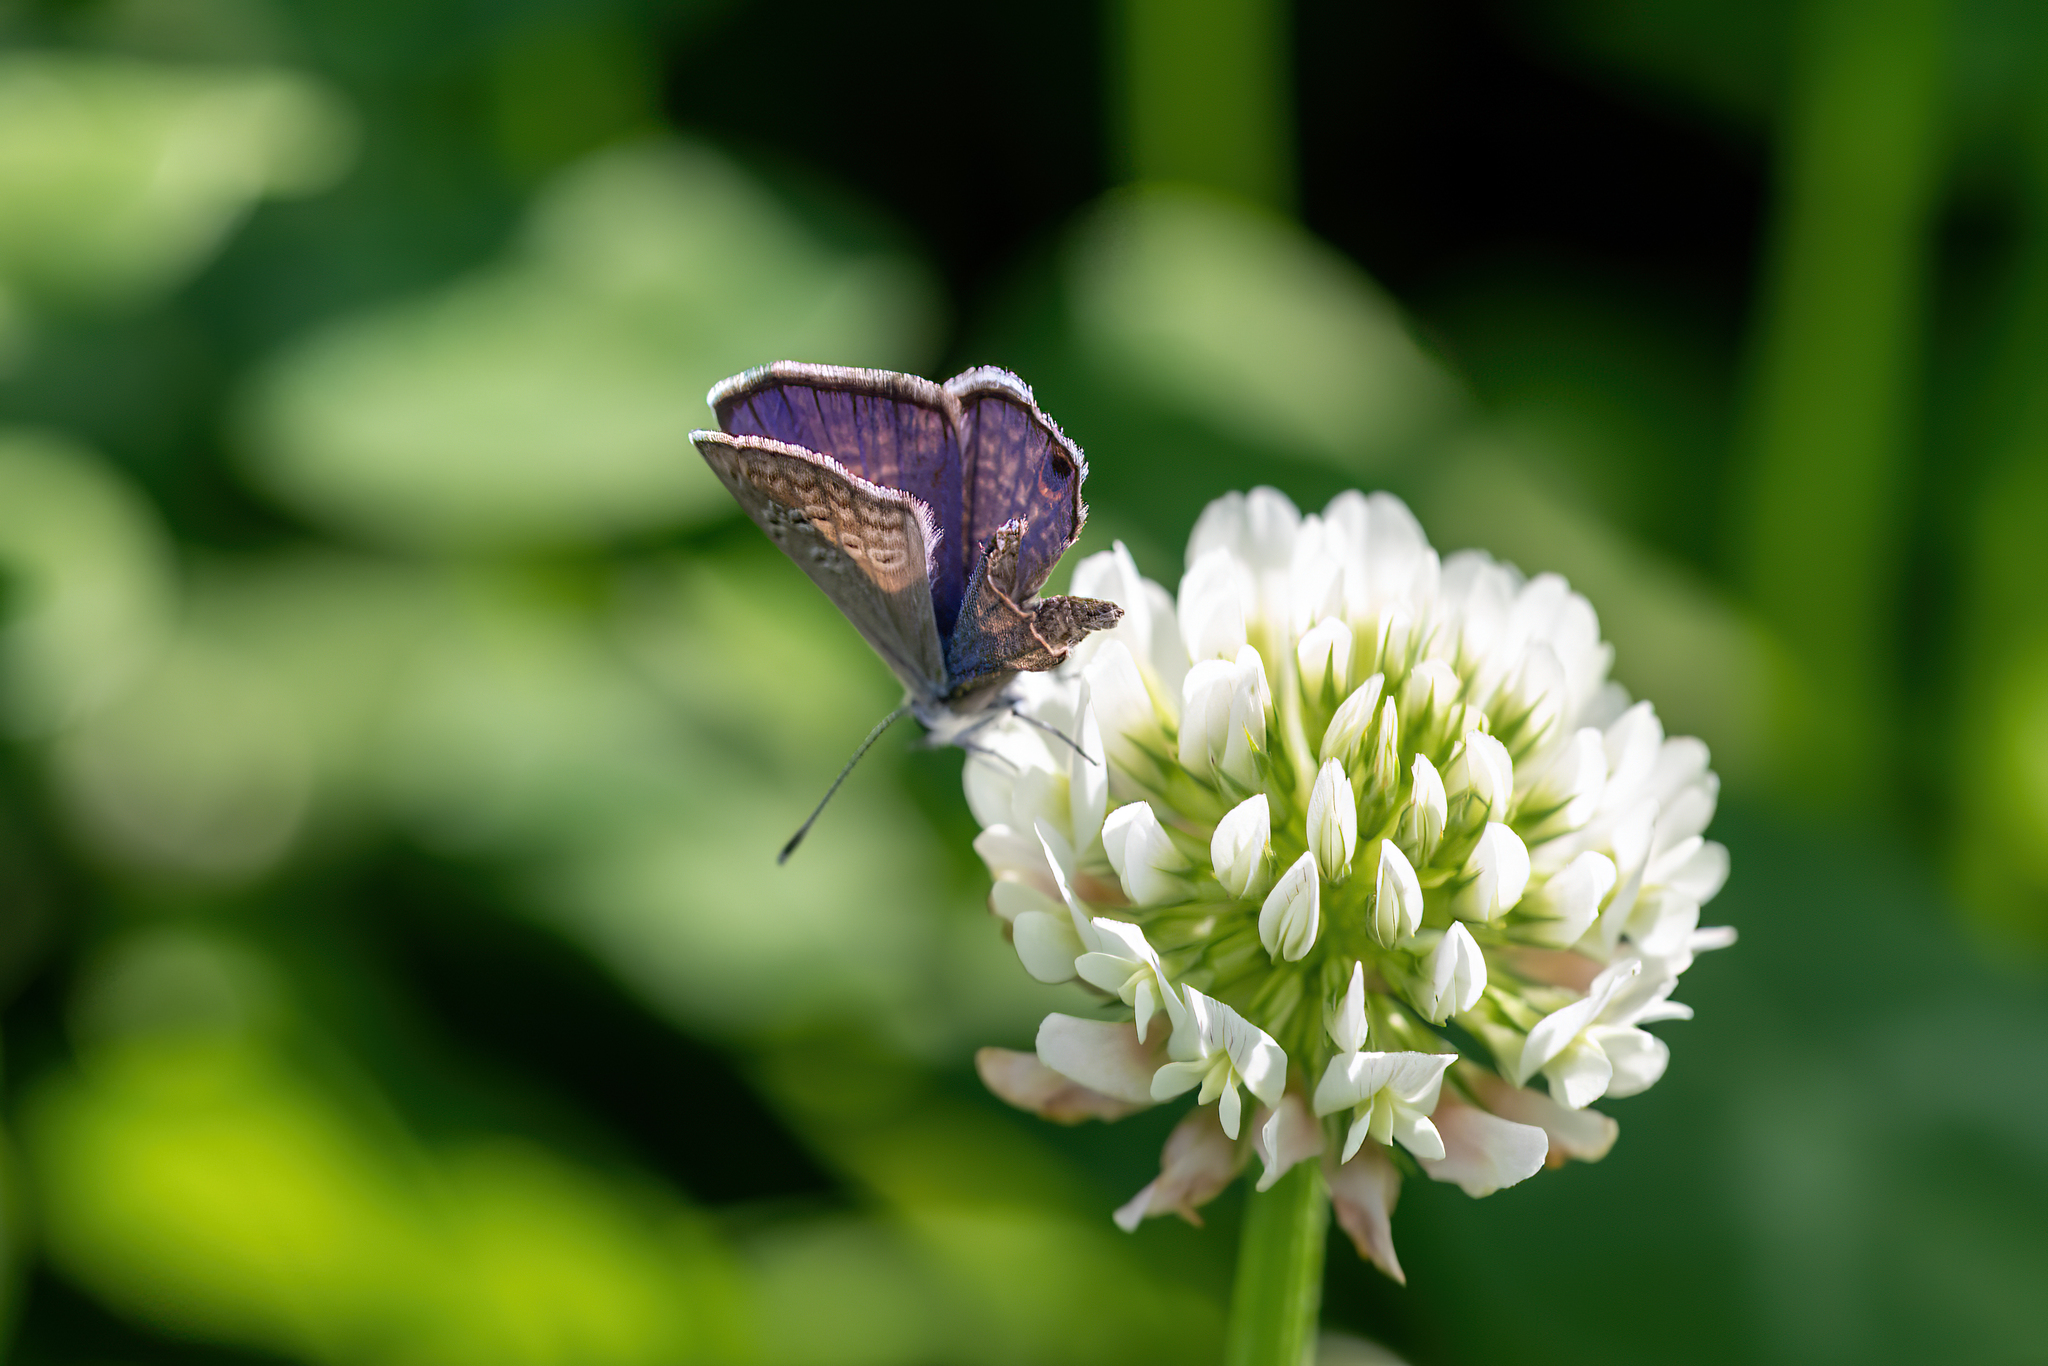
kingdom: Animalia
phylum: Arthropoda
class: Insecta
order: Lepidoptera
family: Lycaenidae
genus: Hemiargus
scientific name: Hemiargus ceraunus
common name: Ceraunus blue
